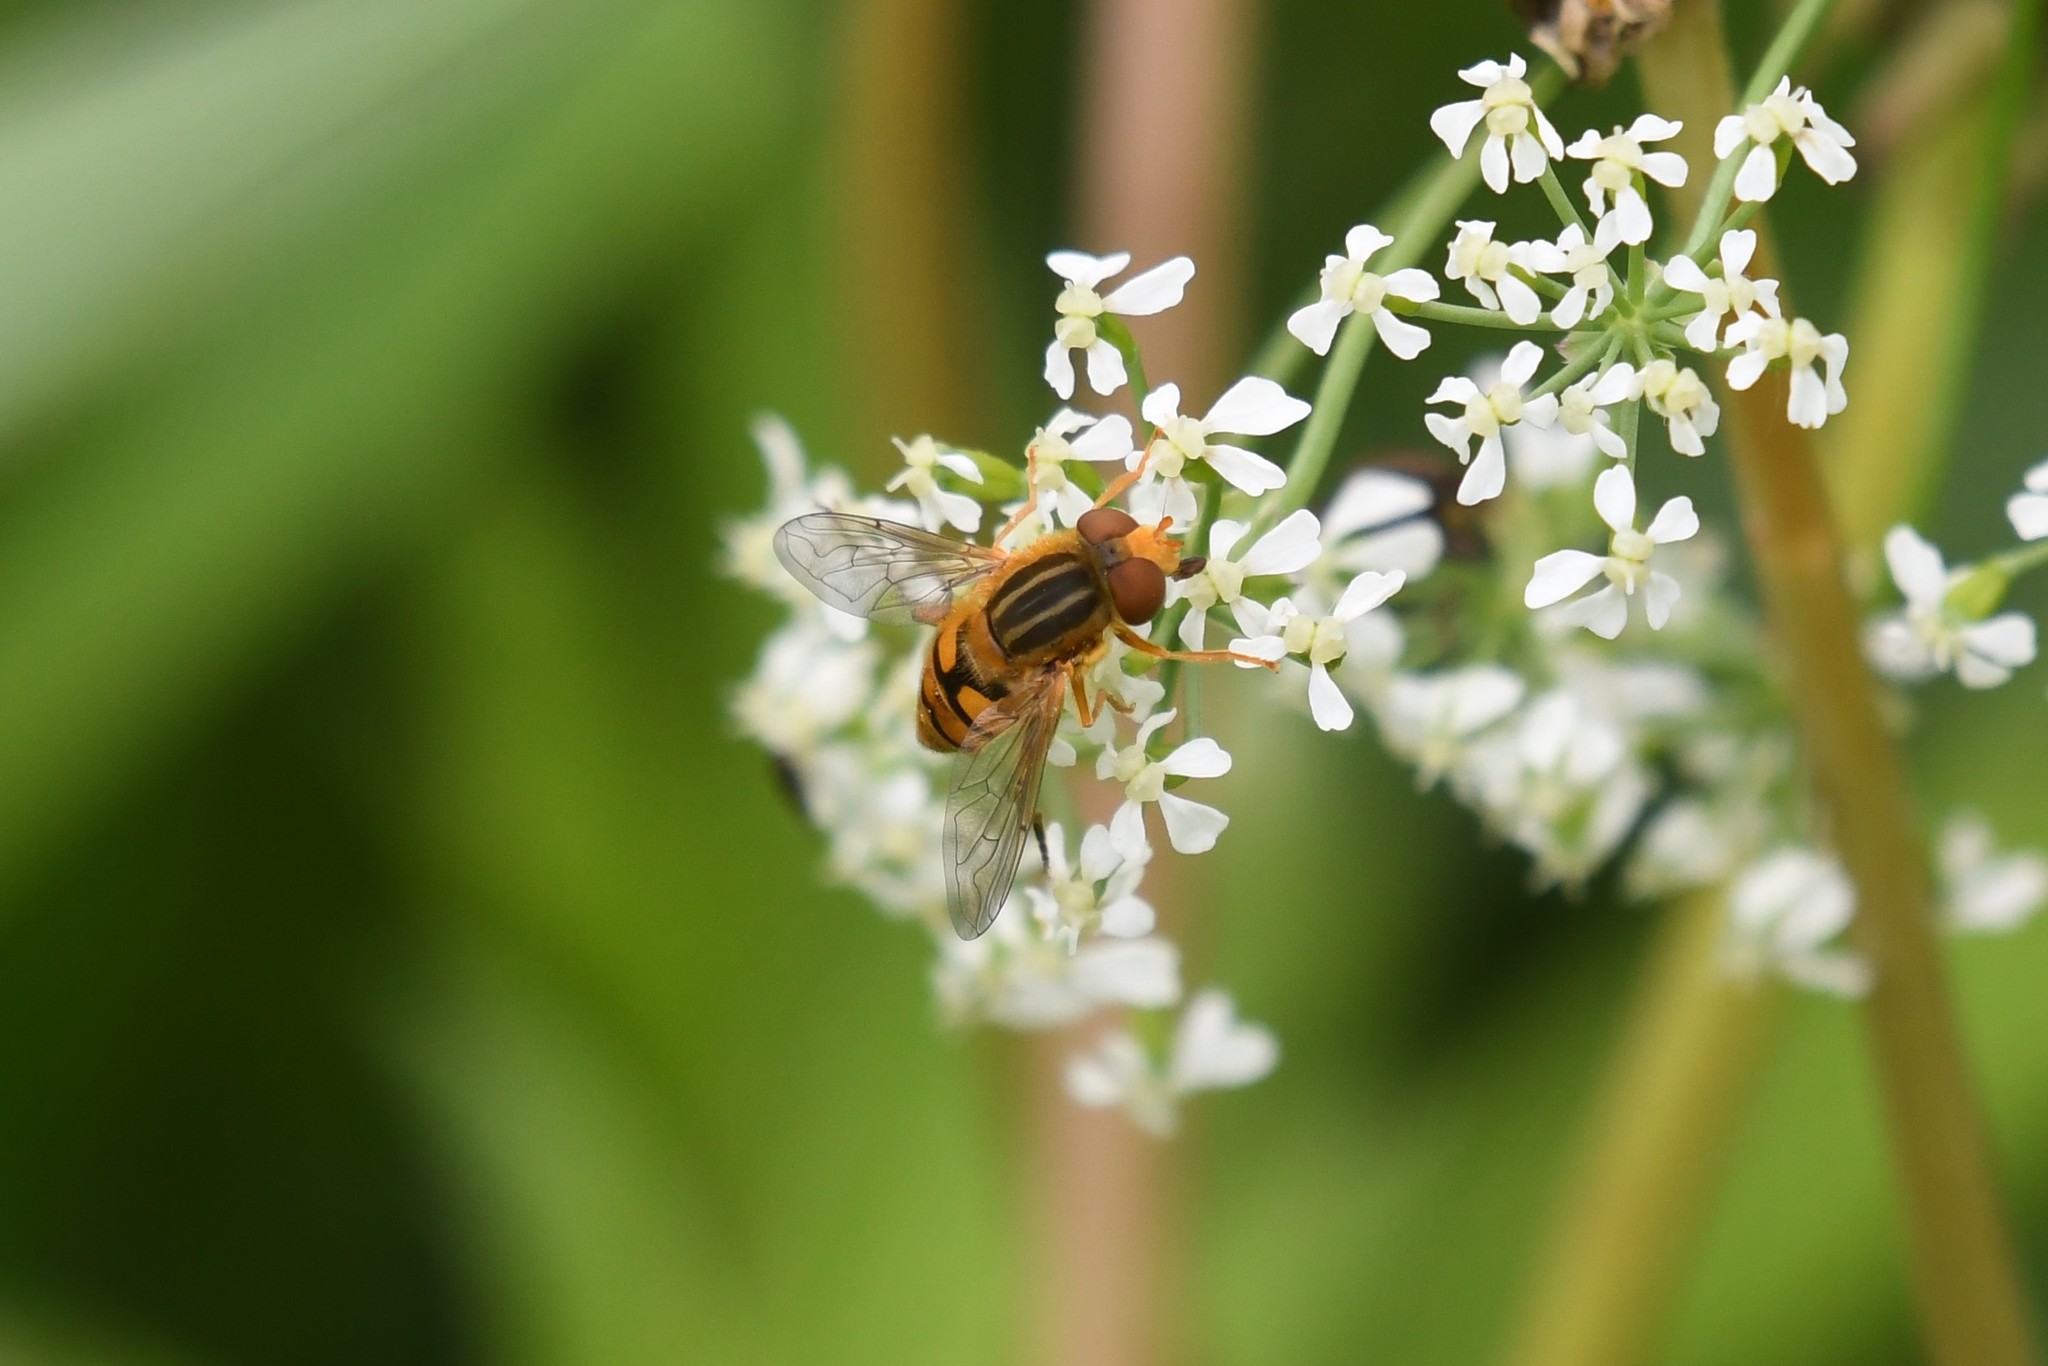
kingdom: Animalia
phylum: Arthropoda
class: Insecta
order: Diptera
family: Syrphidae
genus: Parhelophilus
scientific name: Parhelophilus laetus
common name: Common bog fly
